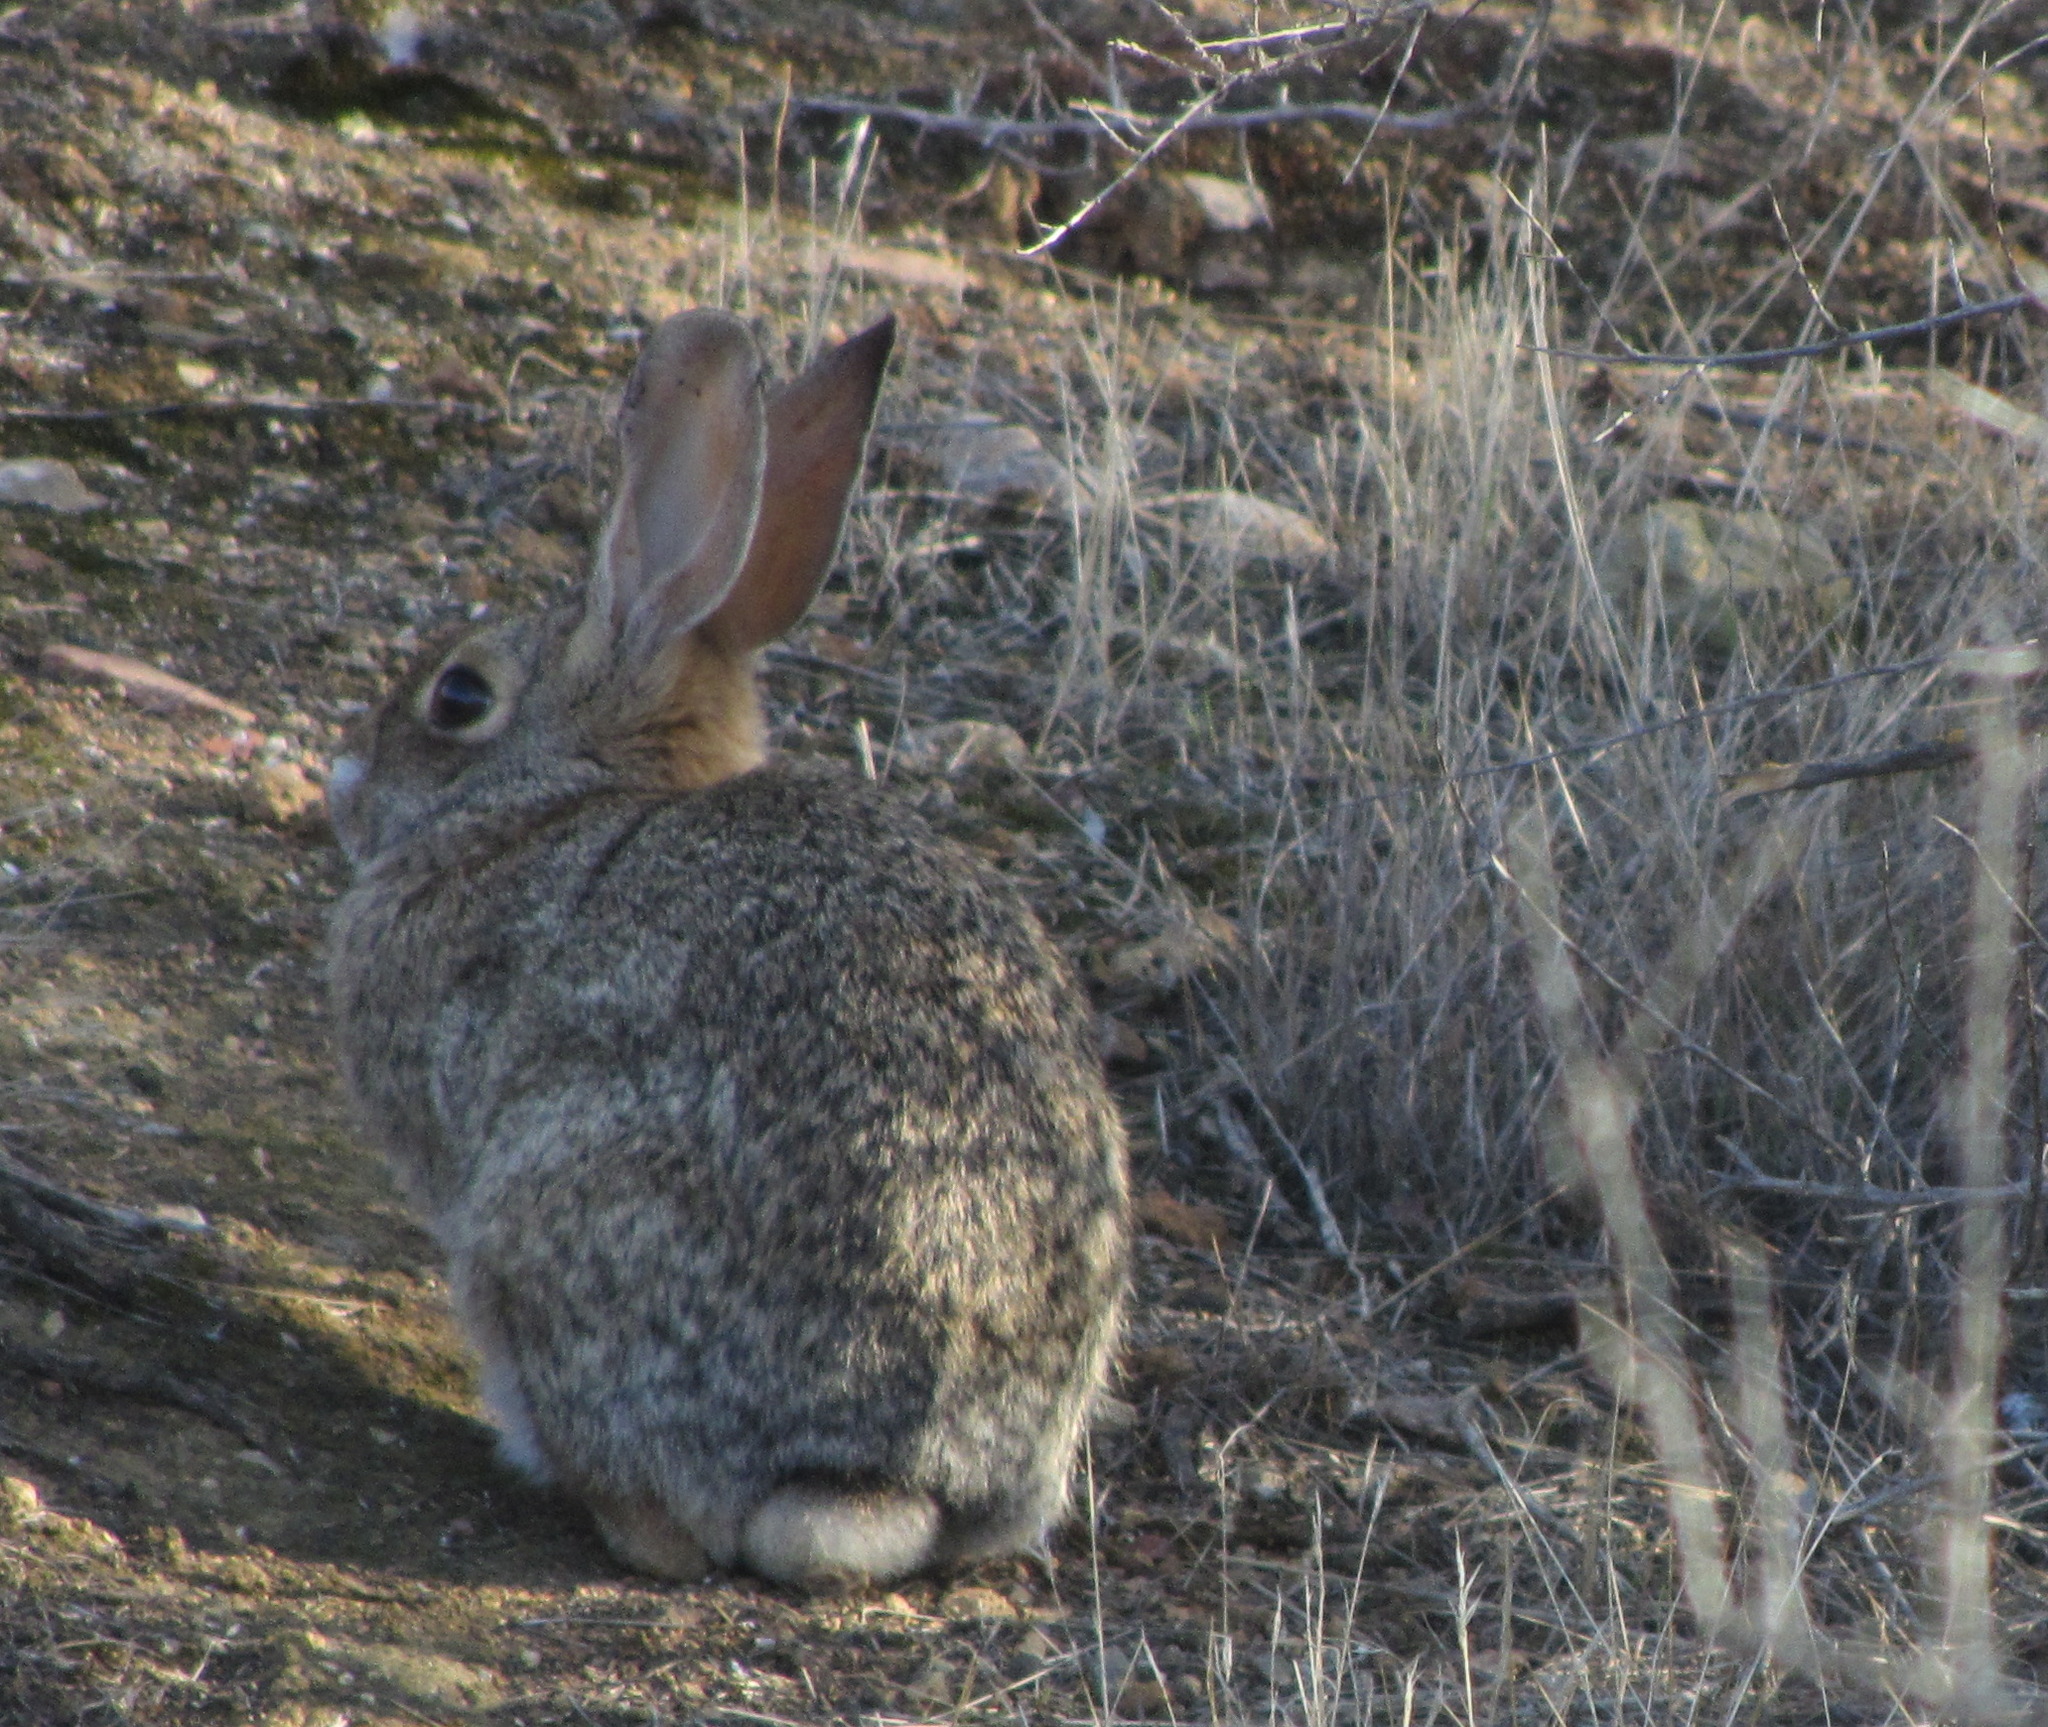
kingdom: Animalia
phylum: Chordata
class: Mammalia
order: Lagomorpha
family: Leporidae
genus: Sylvilagus
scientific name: Sylvilagus audubonii
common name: Desert cottontail
